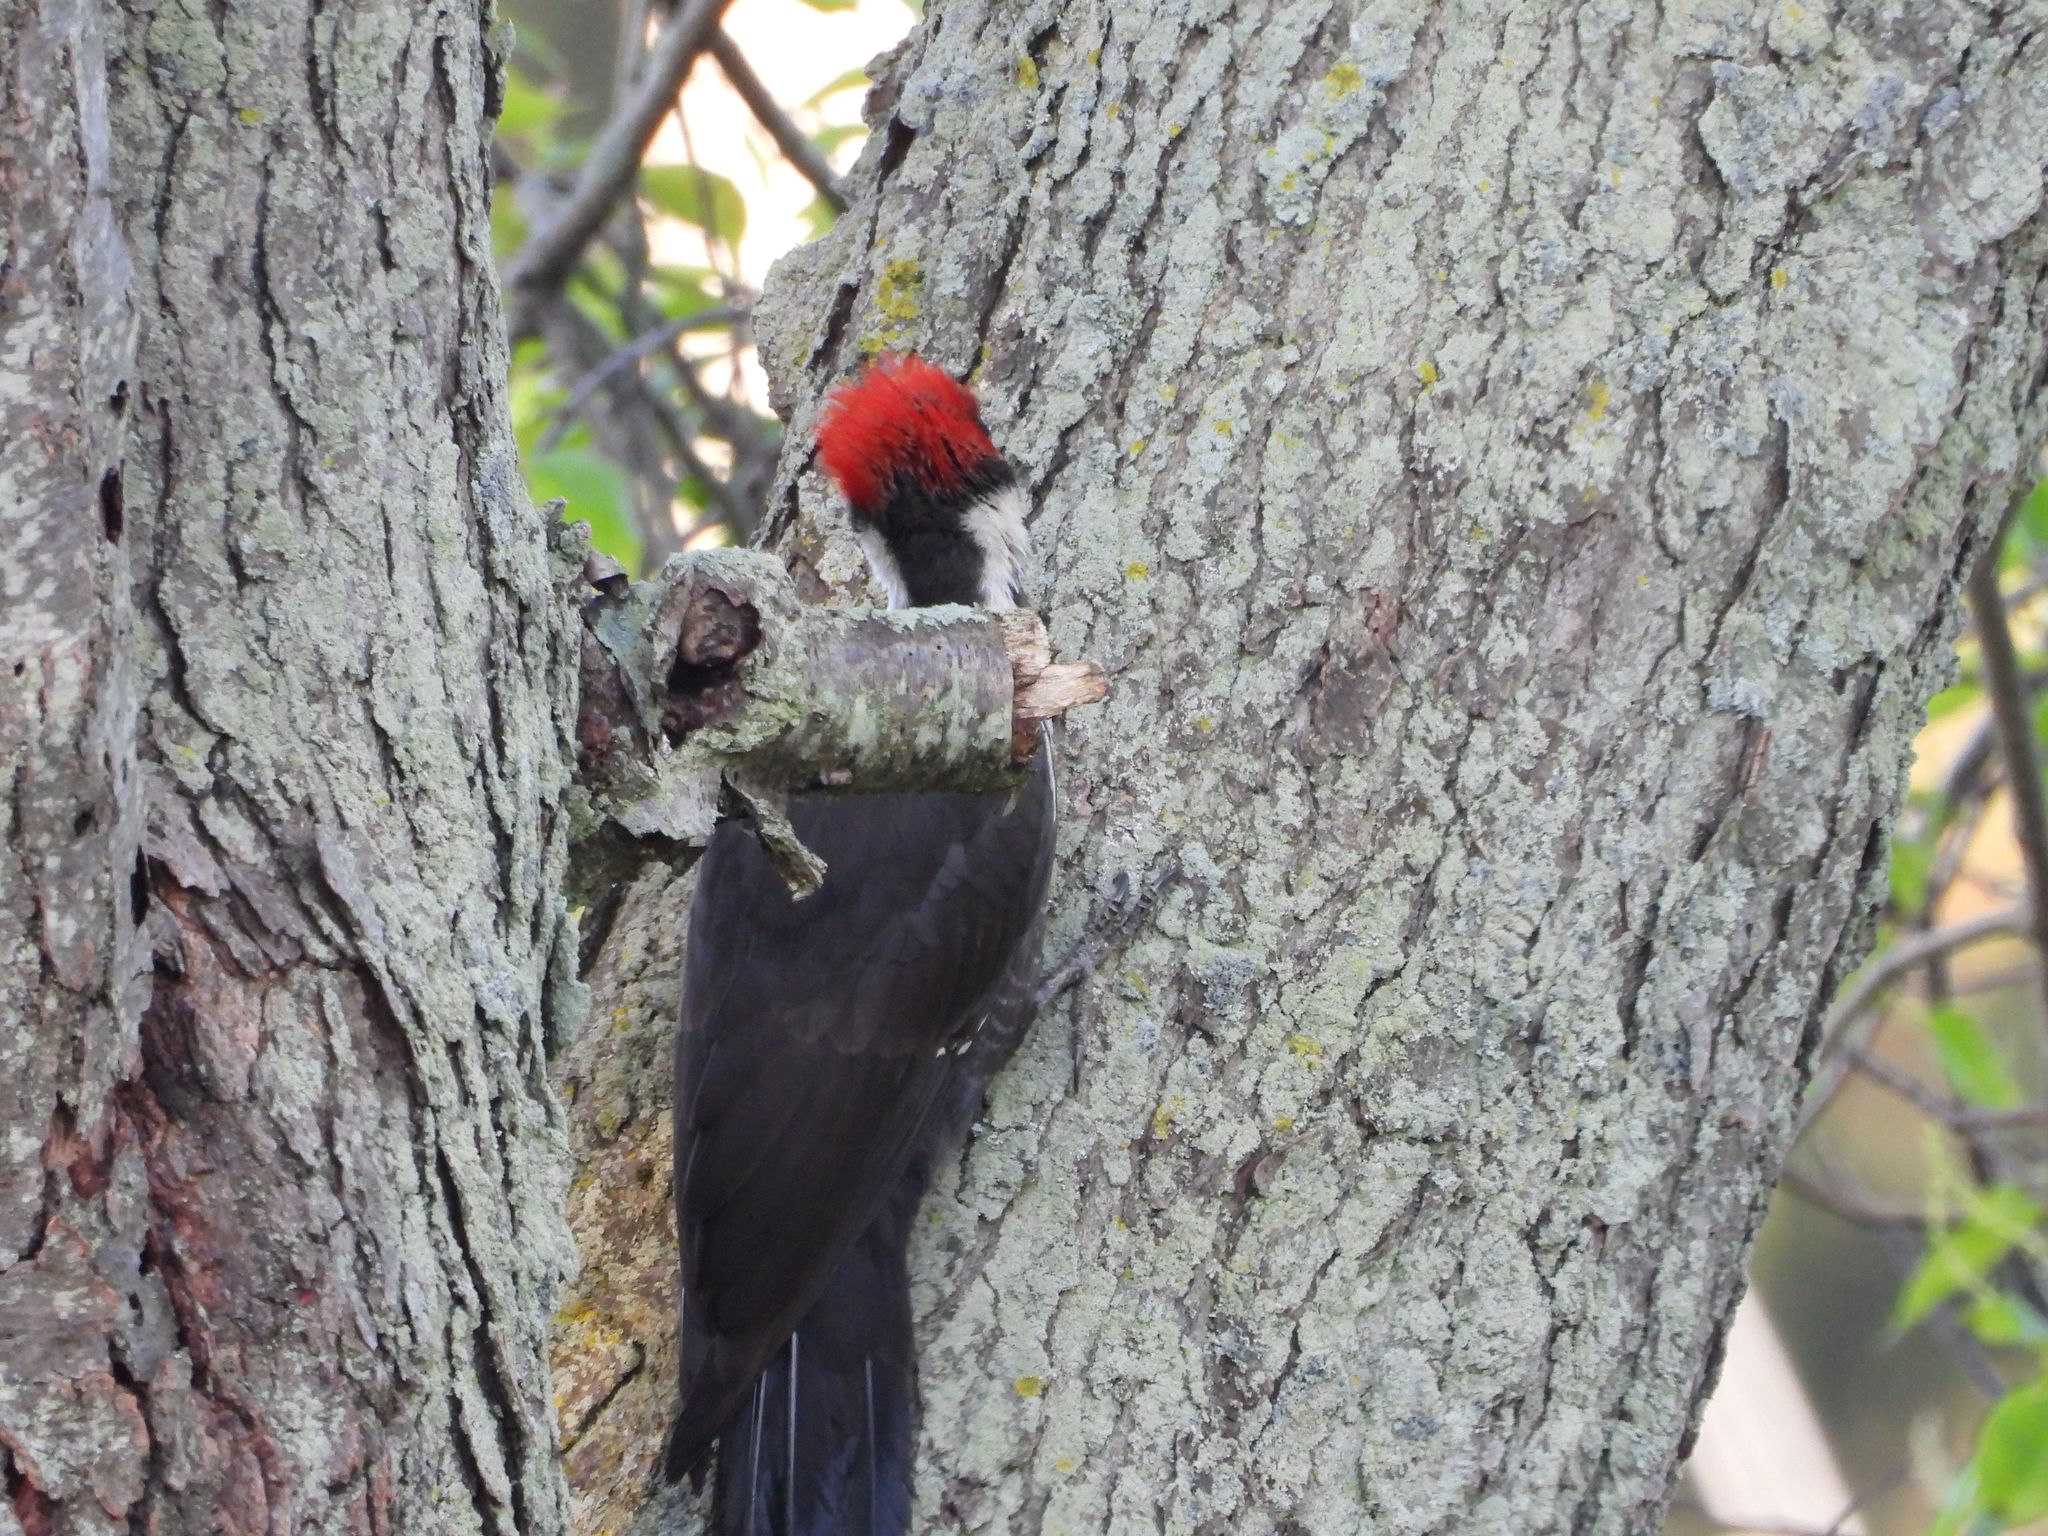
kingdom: Animalia
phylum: Chordata
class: Aves
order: Piciformes
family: Picidae
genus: Dryocopus
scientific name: Dryocopus pileatus
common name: Pileated woodpecker
